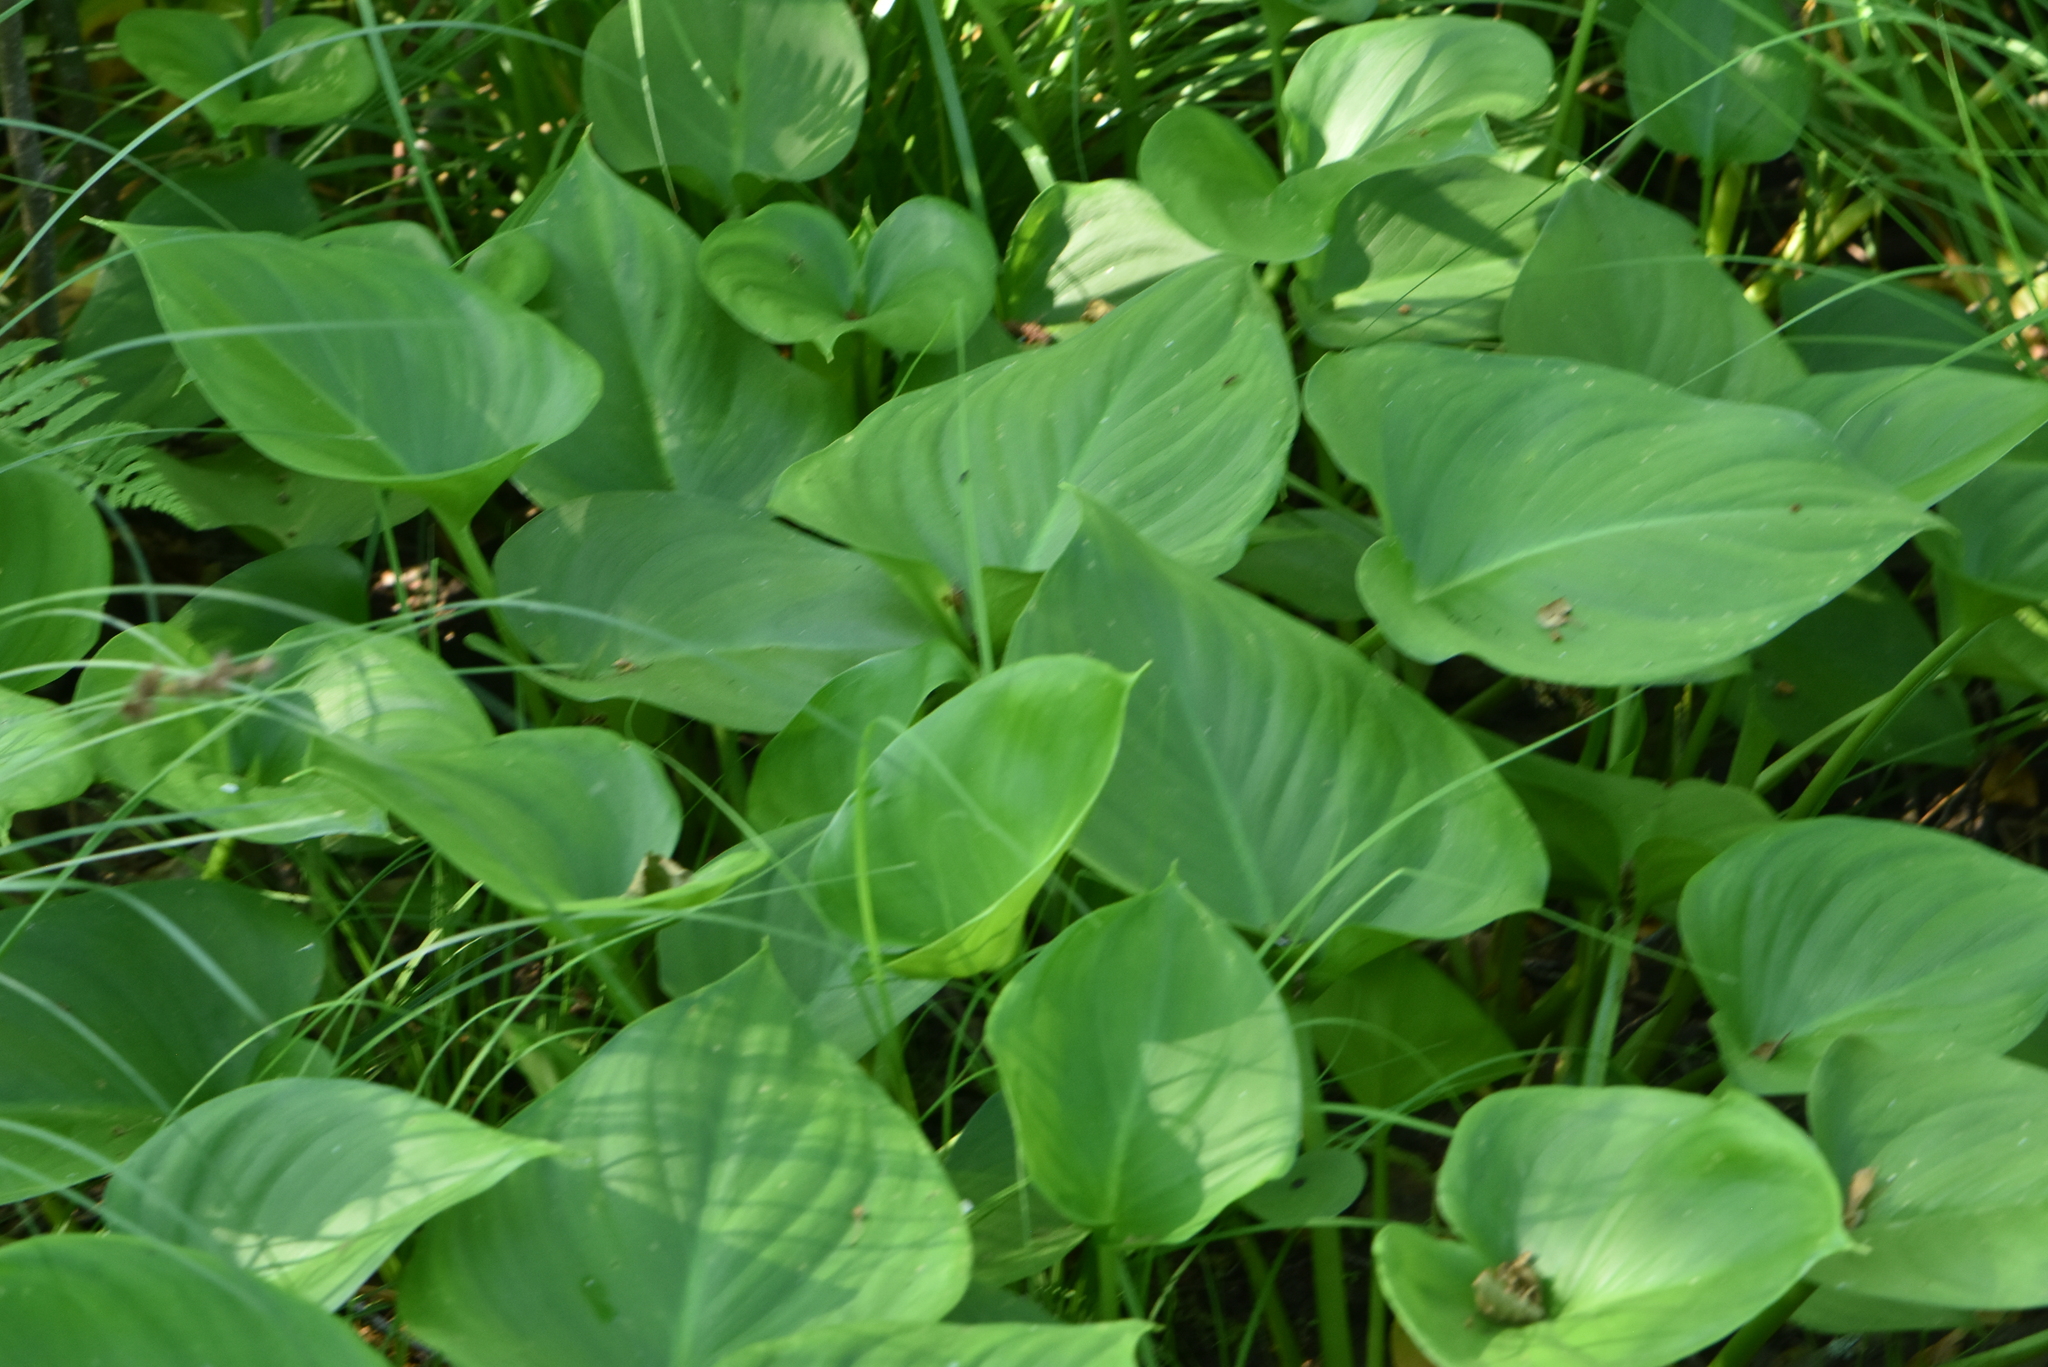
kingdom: Plantae
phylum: Tracheophyta
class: Liliopsida
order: Alismatales
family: Araceae
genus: Calla
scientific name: Calla palustris
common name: Bog arum
